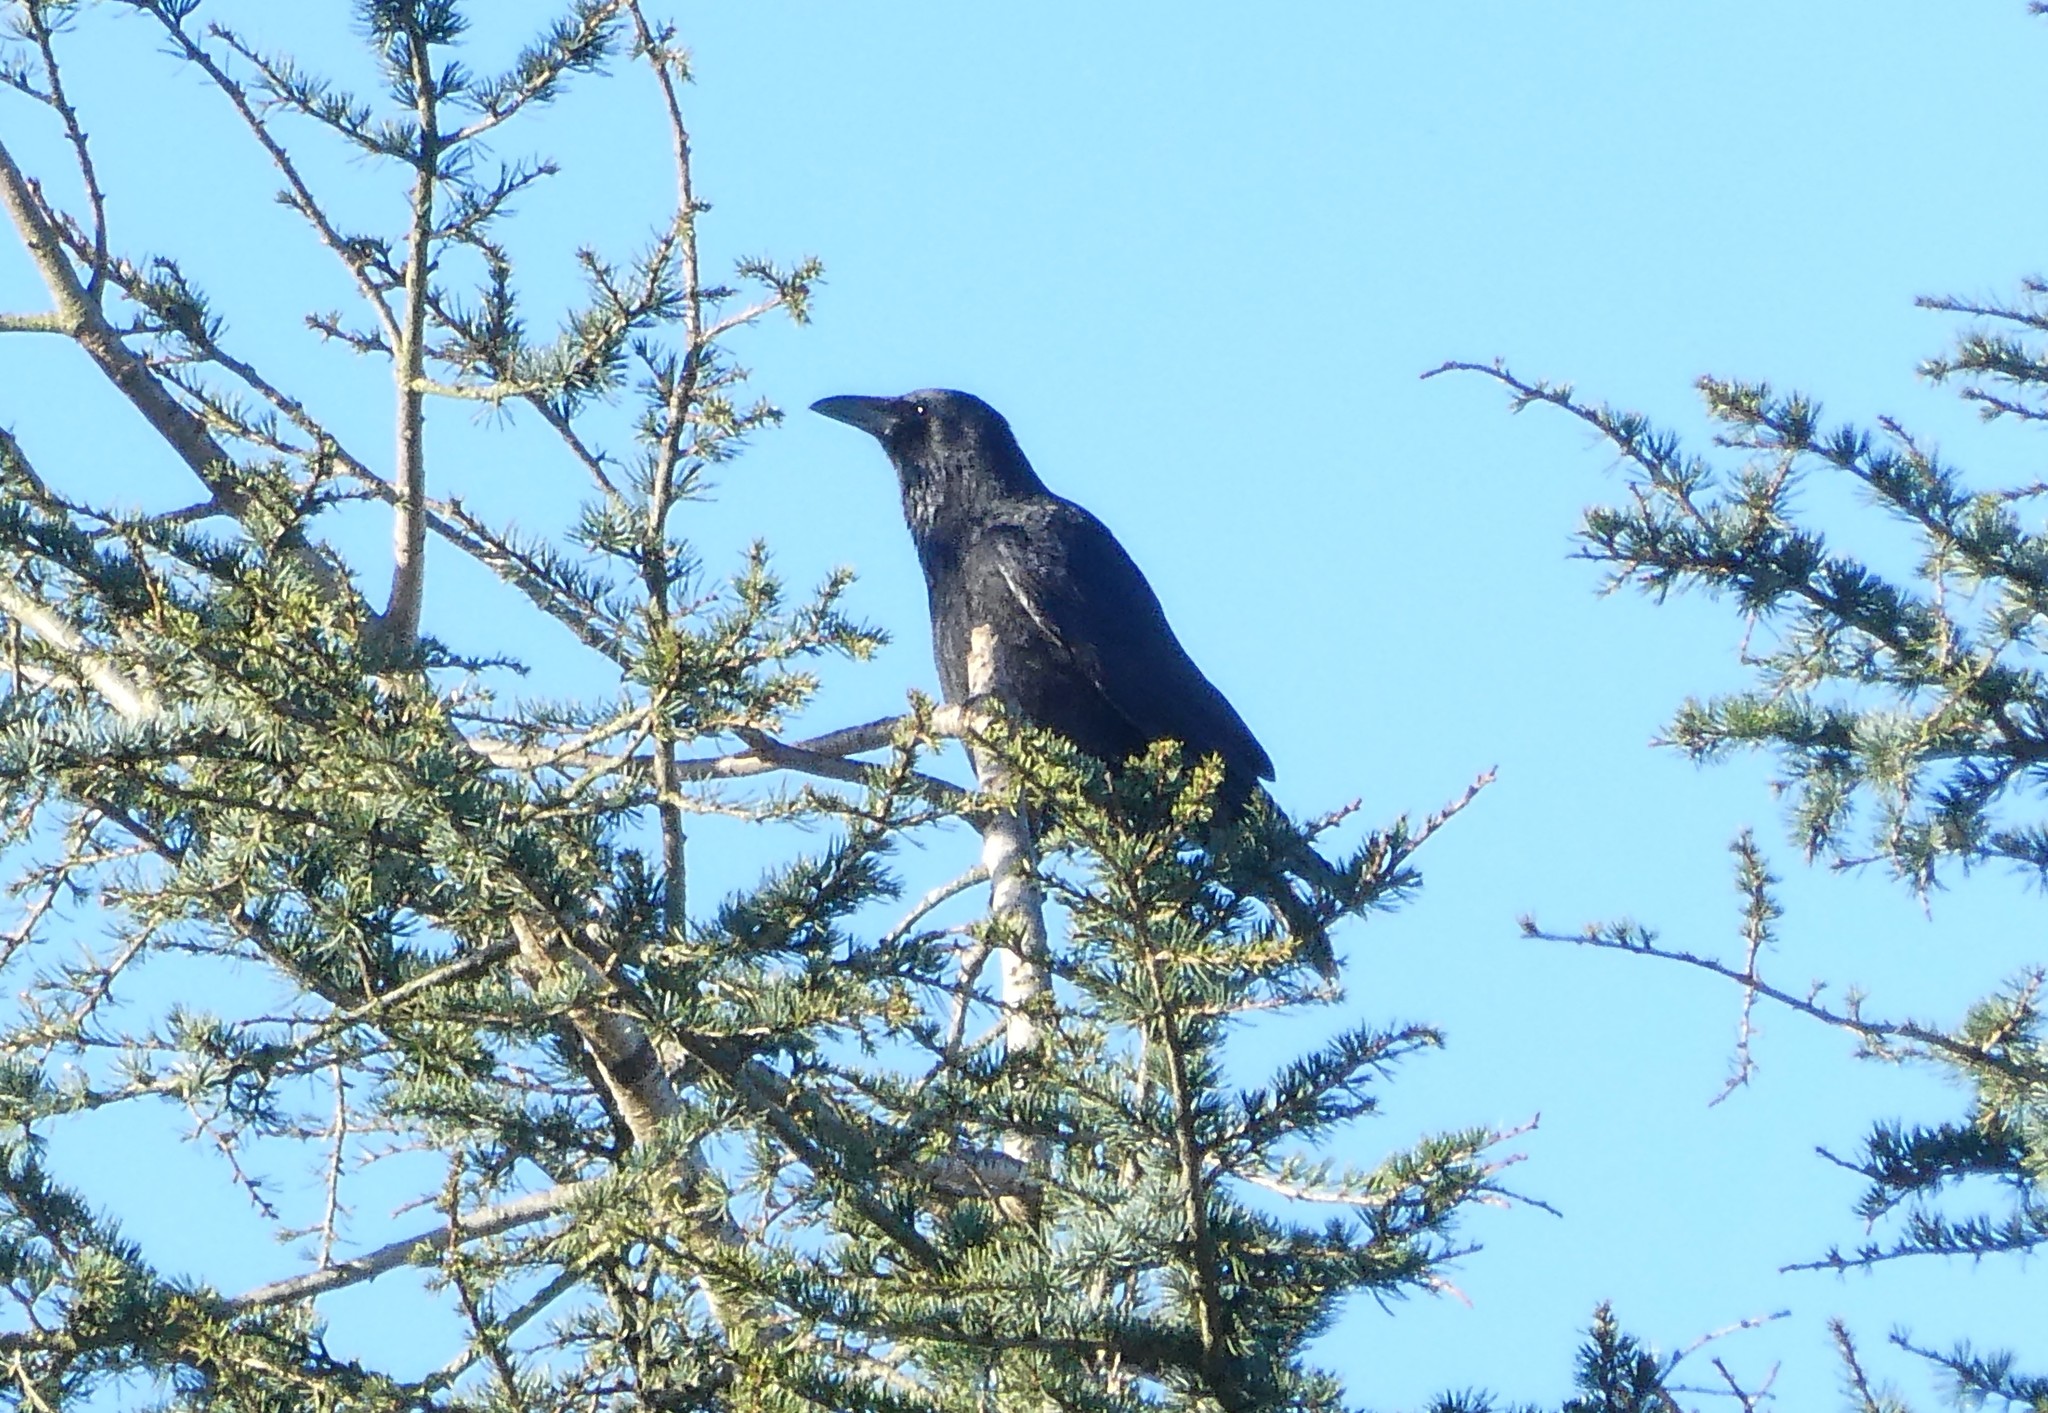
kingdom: Animalia
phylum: Chordata
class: Aves
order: Passeriformes
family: Corvidae
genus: Corvus
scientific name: Corvus corone
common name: Carrion crow
